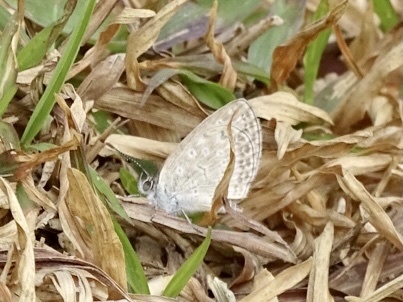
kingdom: Animalia
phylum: Arthropoda
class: Insecta
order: Lepidoptera
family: Lycaenidae
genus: Pseudozizeeria
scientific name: Pseudozizeeria maha
